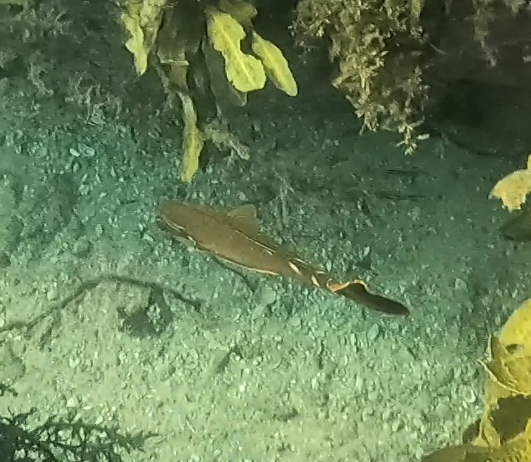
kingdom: Animalia
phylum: Chordata
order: Perciformes
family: Latridae
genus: Morwong
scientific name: Morwong fuscus
